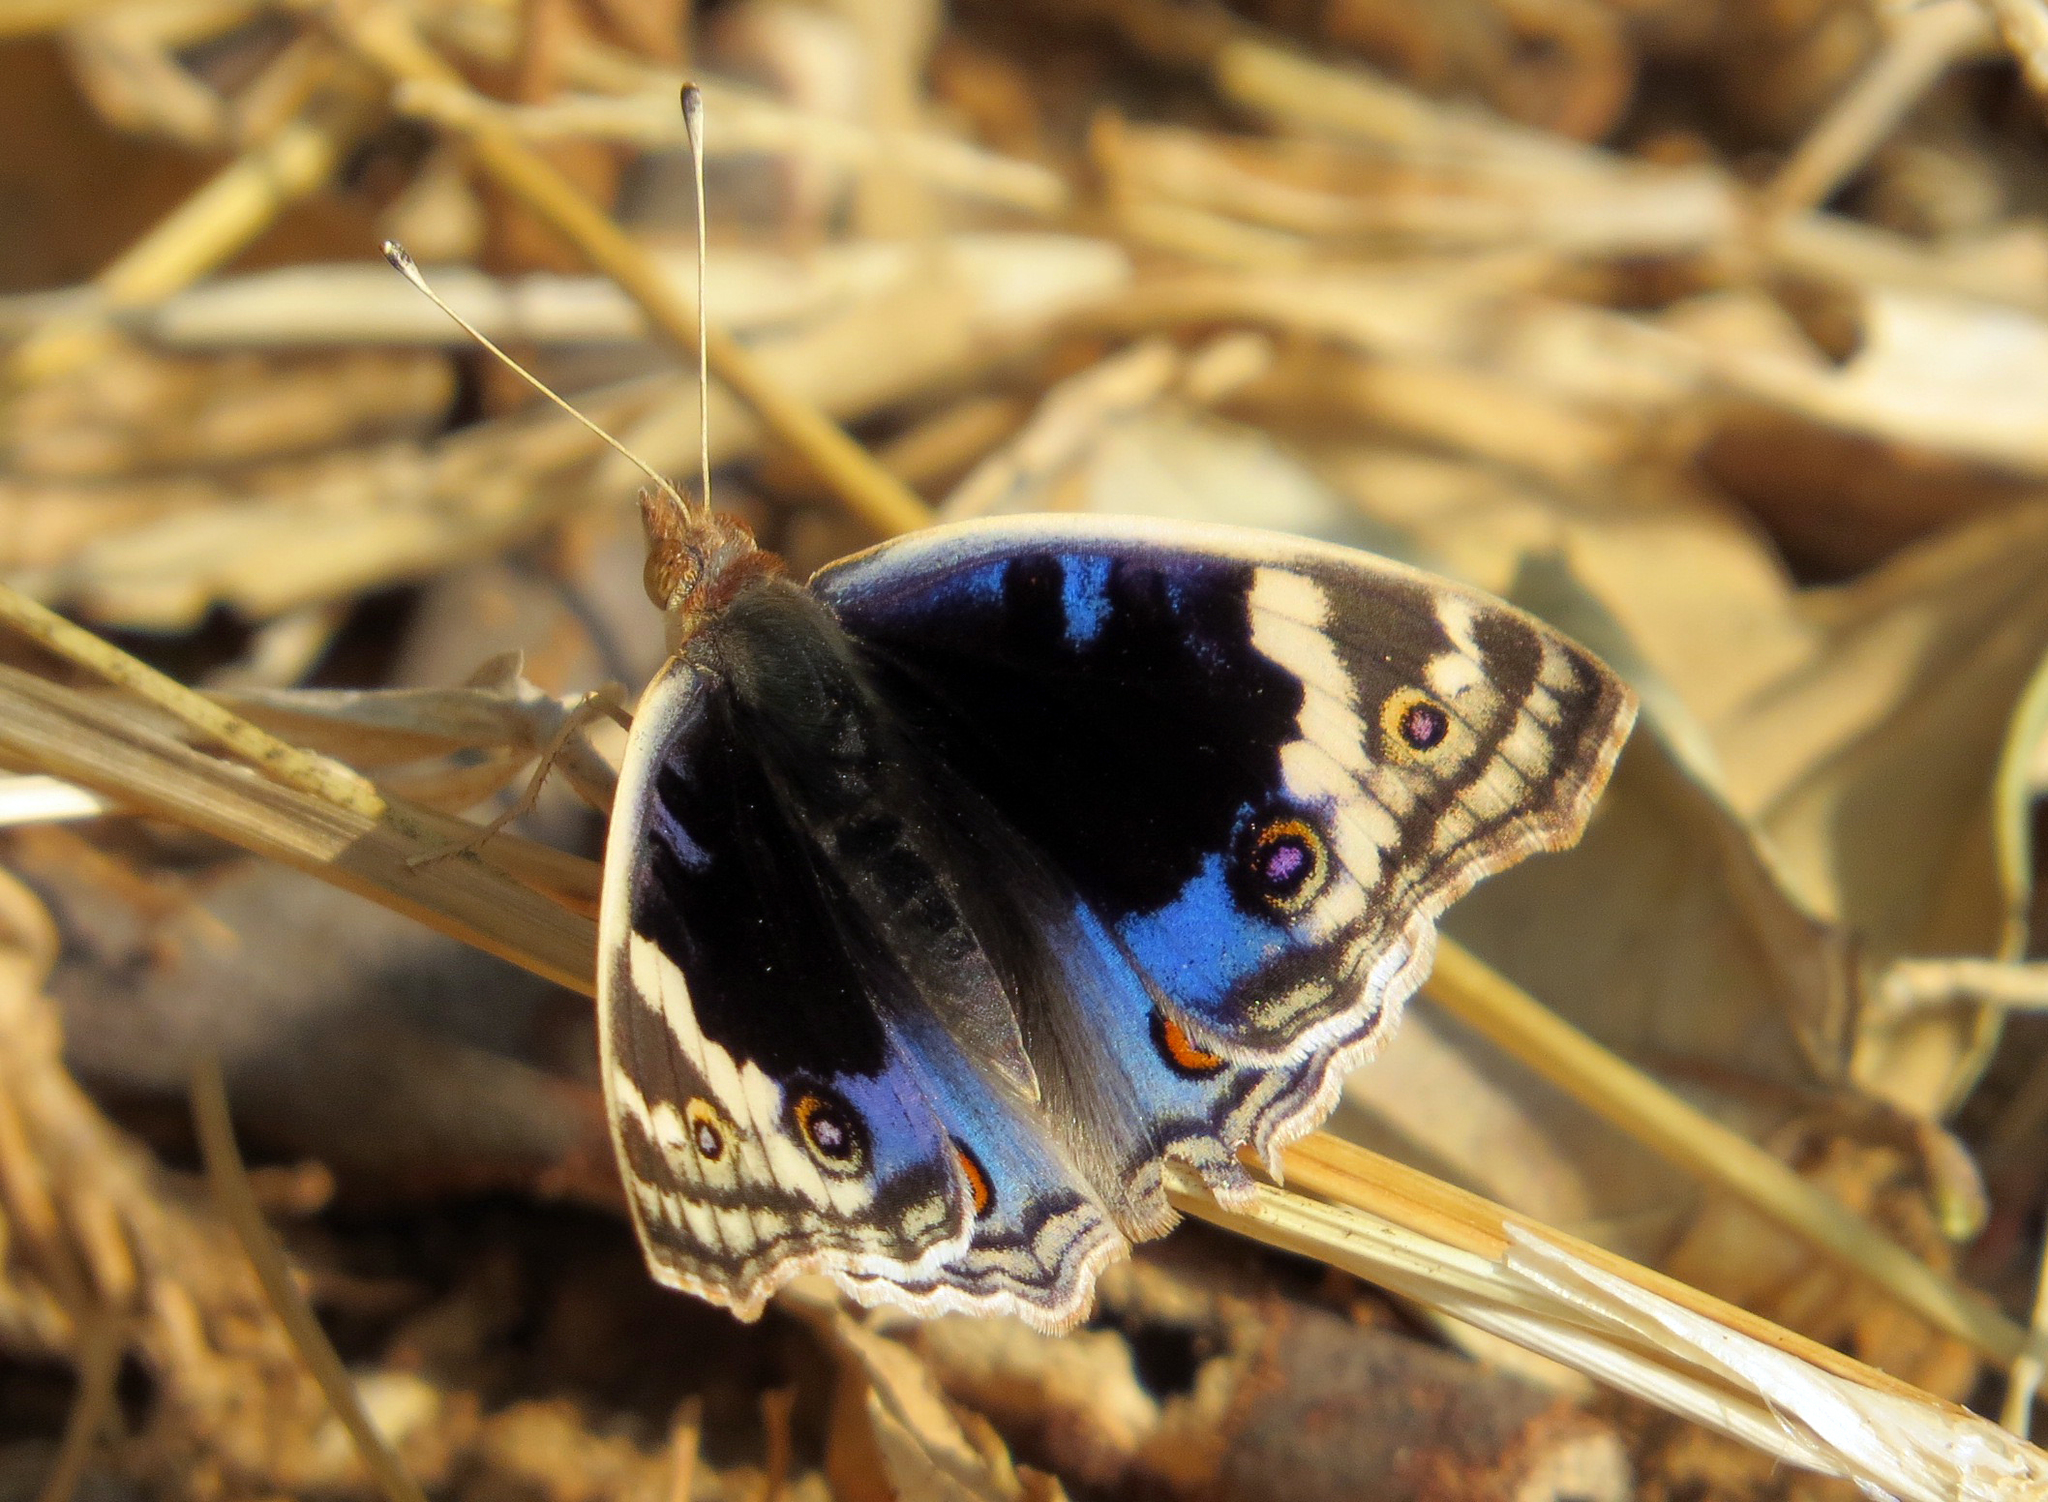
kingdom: Animalia
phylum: Arthropoda
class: Insecta
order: Lepidoptera
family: Nymphalidae
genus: Junonia
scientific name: Junonia orithya
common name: Blue pansy
